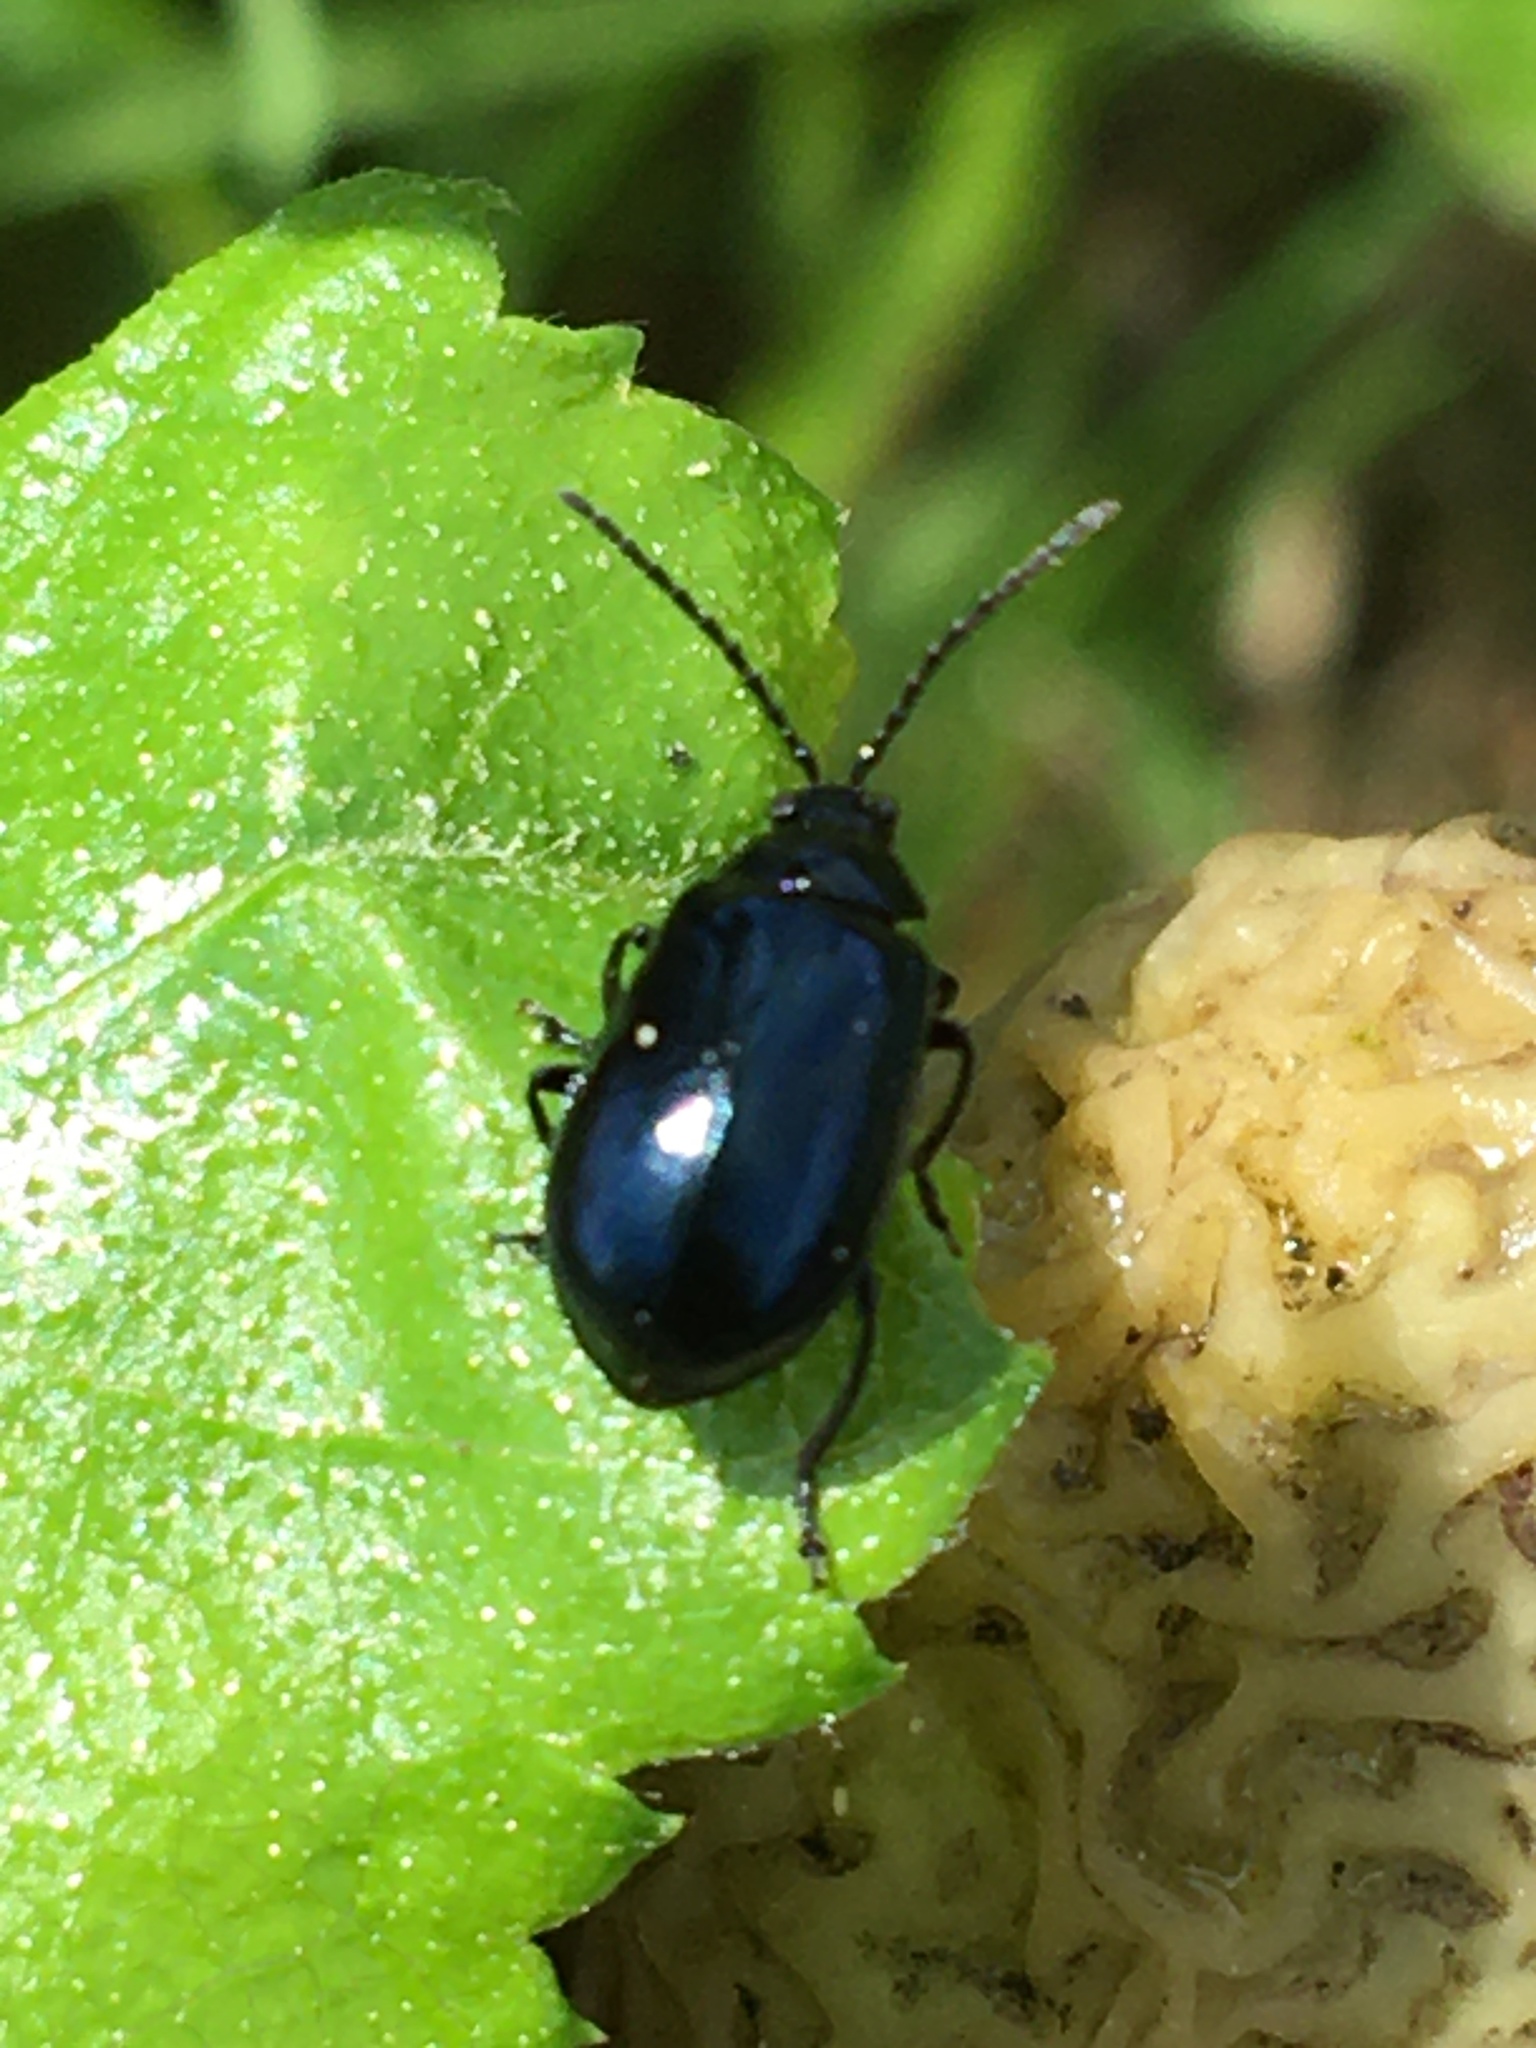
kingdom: Animalia
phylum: Arthropoda
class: Insecta
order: Coleoptera
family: Chrysomelidae
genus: Agelastica
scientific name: Agelastica alni
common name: Alder leaf beetle
